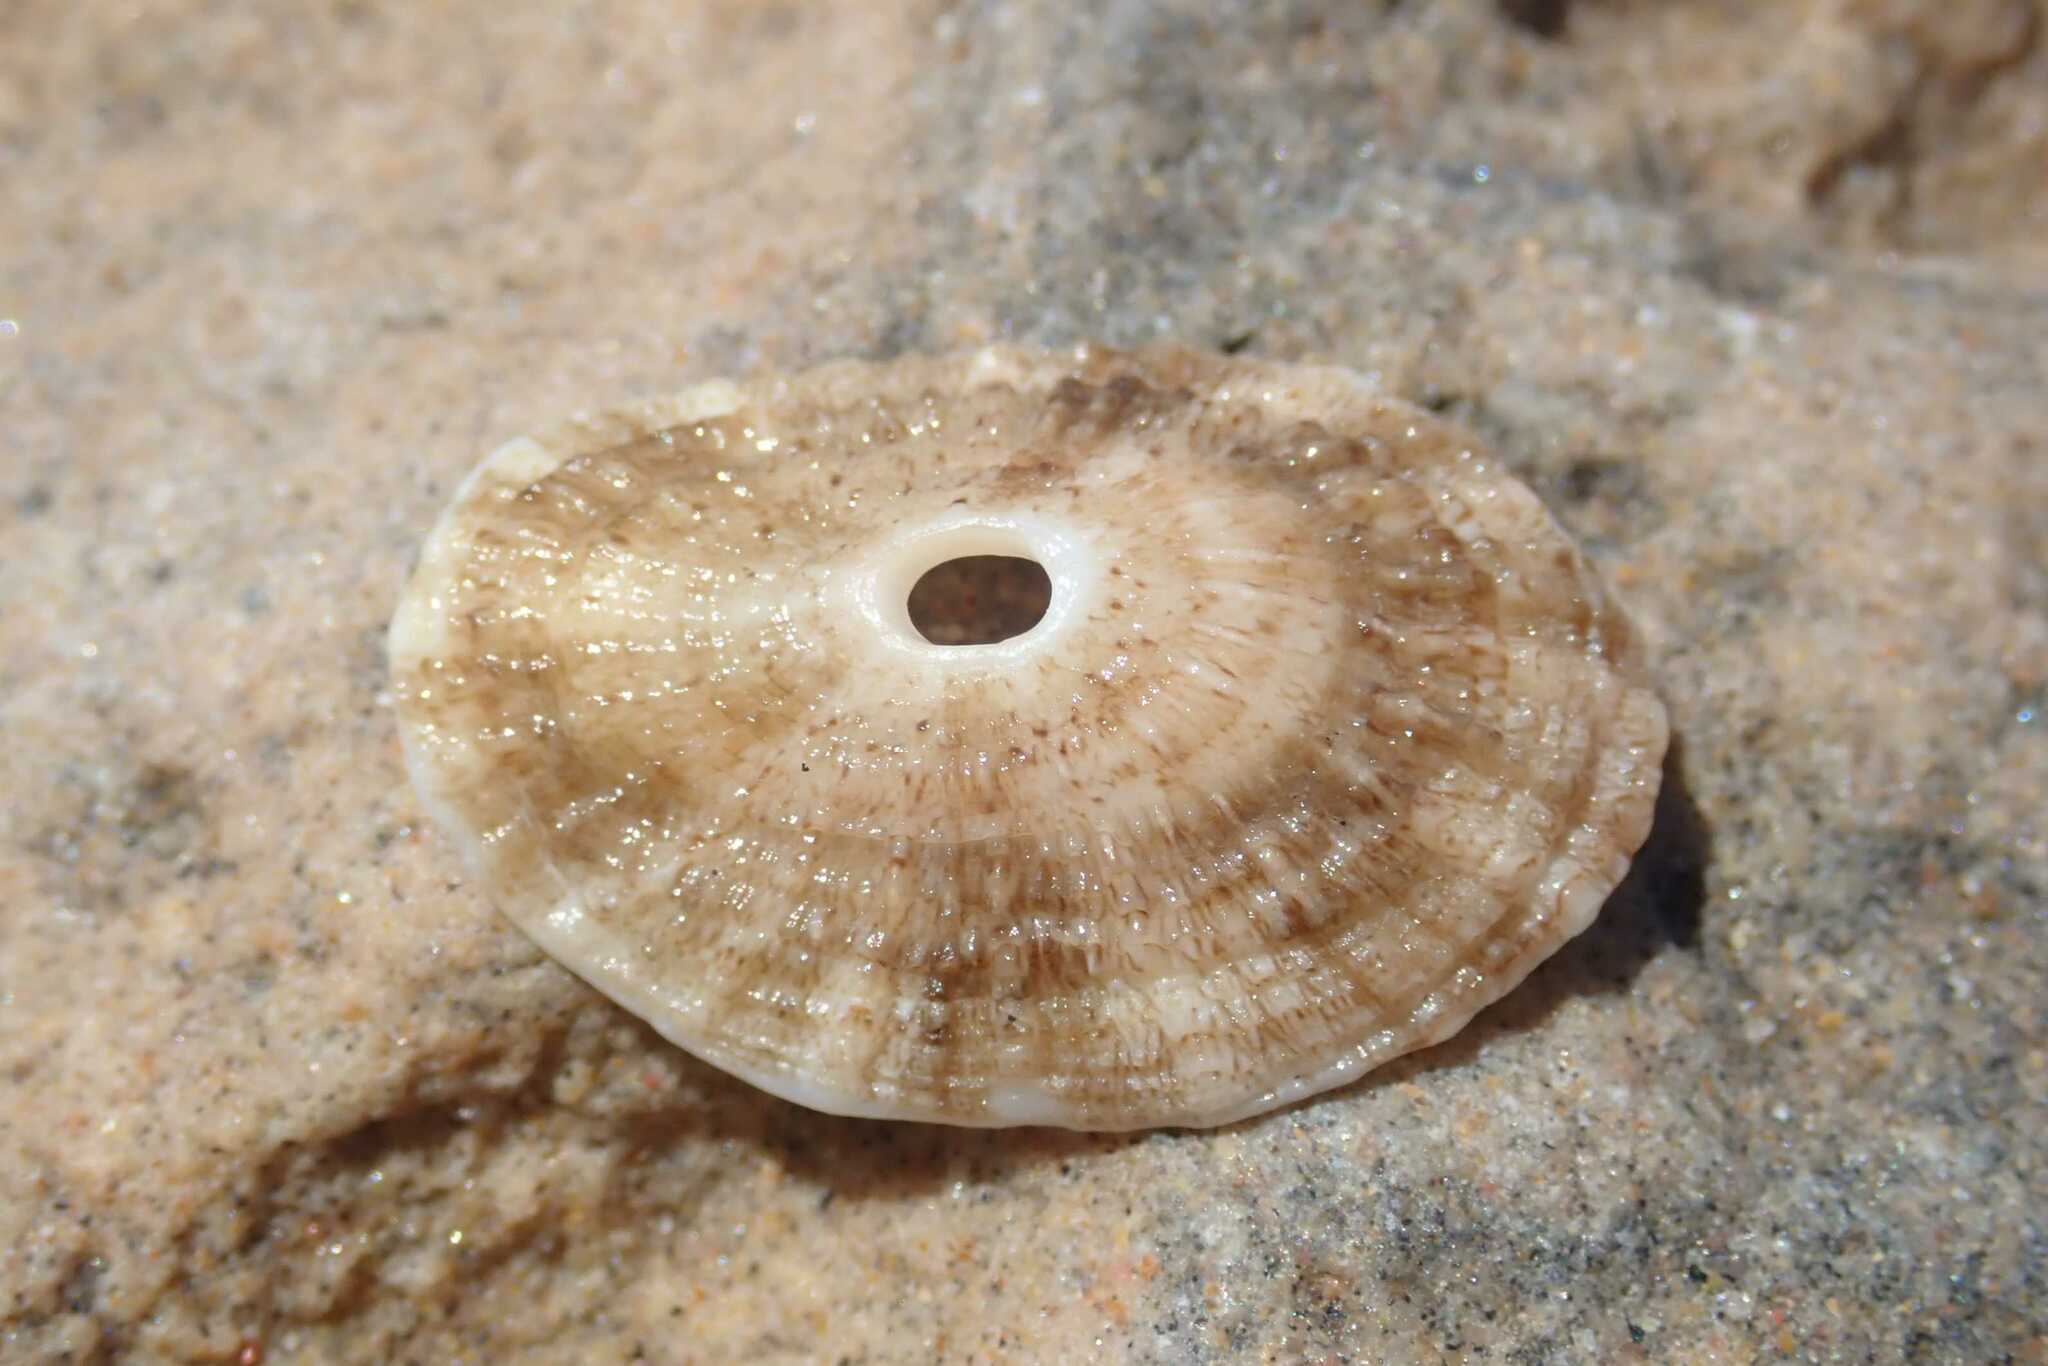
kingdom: Animalia
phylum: Mollusca
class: Gastropoda
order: Lepetellida
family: Fissurellidae
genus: Dendrofissurella
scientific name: Dendrofissurella scutellum
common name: Saddle-shaped keyhole limpet
